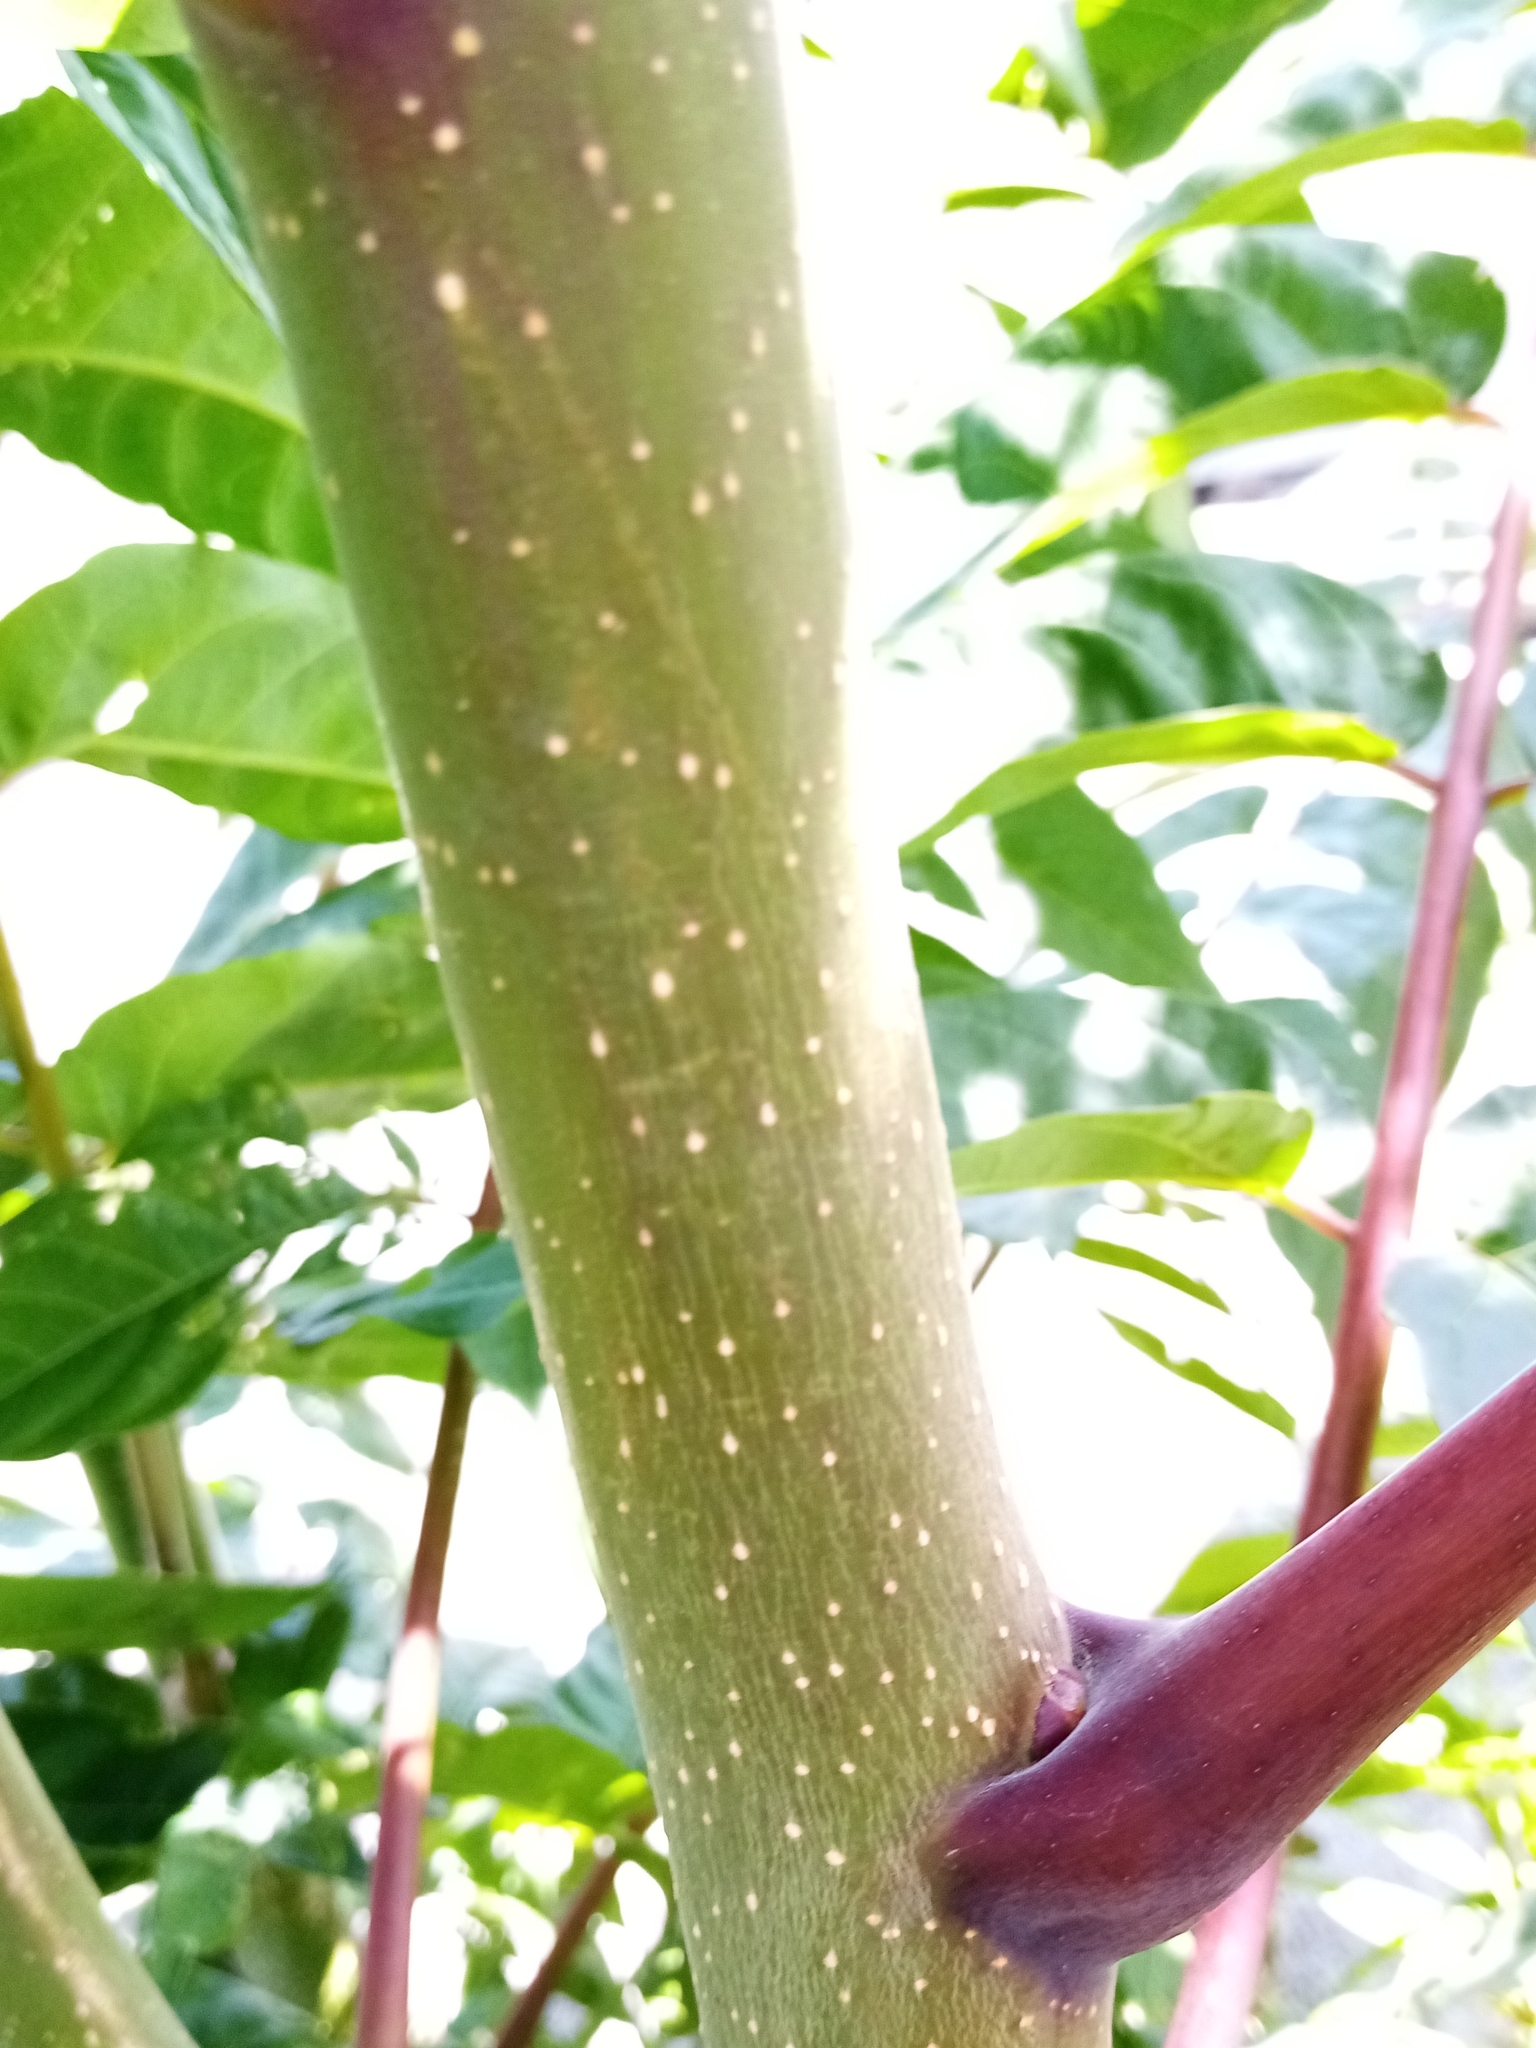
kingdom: Plantae
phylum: Tracheophyta
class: Magnoliopsida
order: Sapindales
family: Simaroubaceae
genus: Ailanthus
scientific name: Ailanthus altissima
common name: Tree-of-heaven
